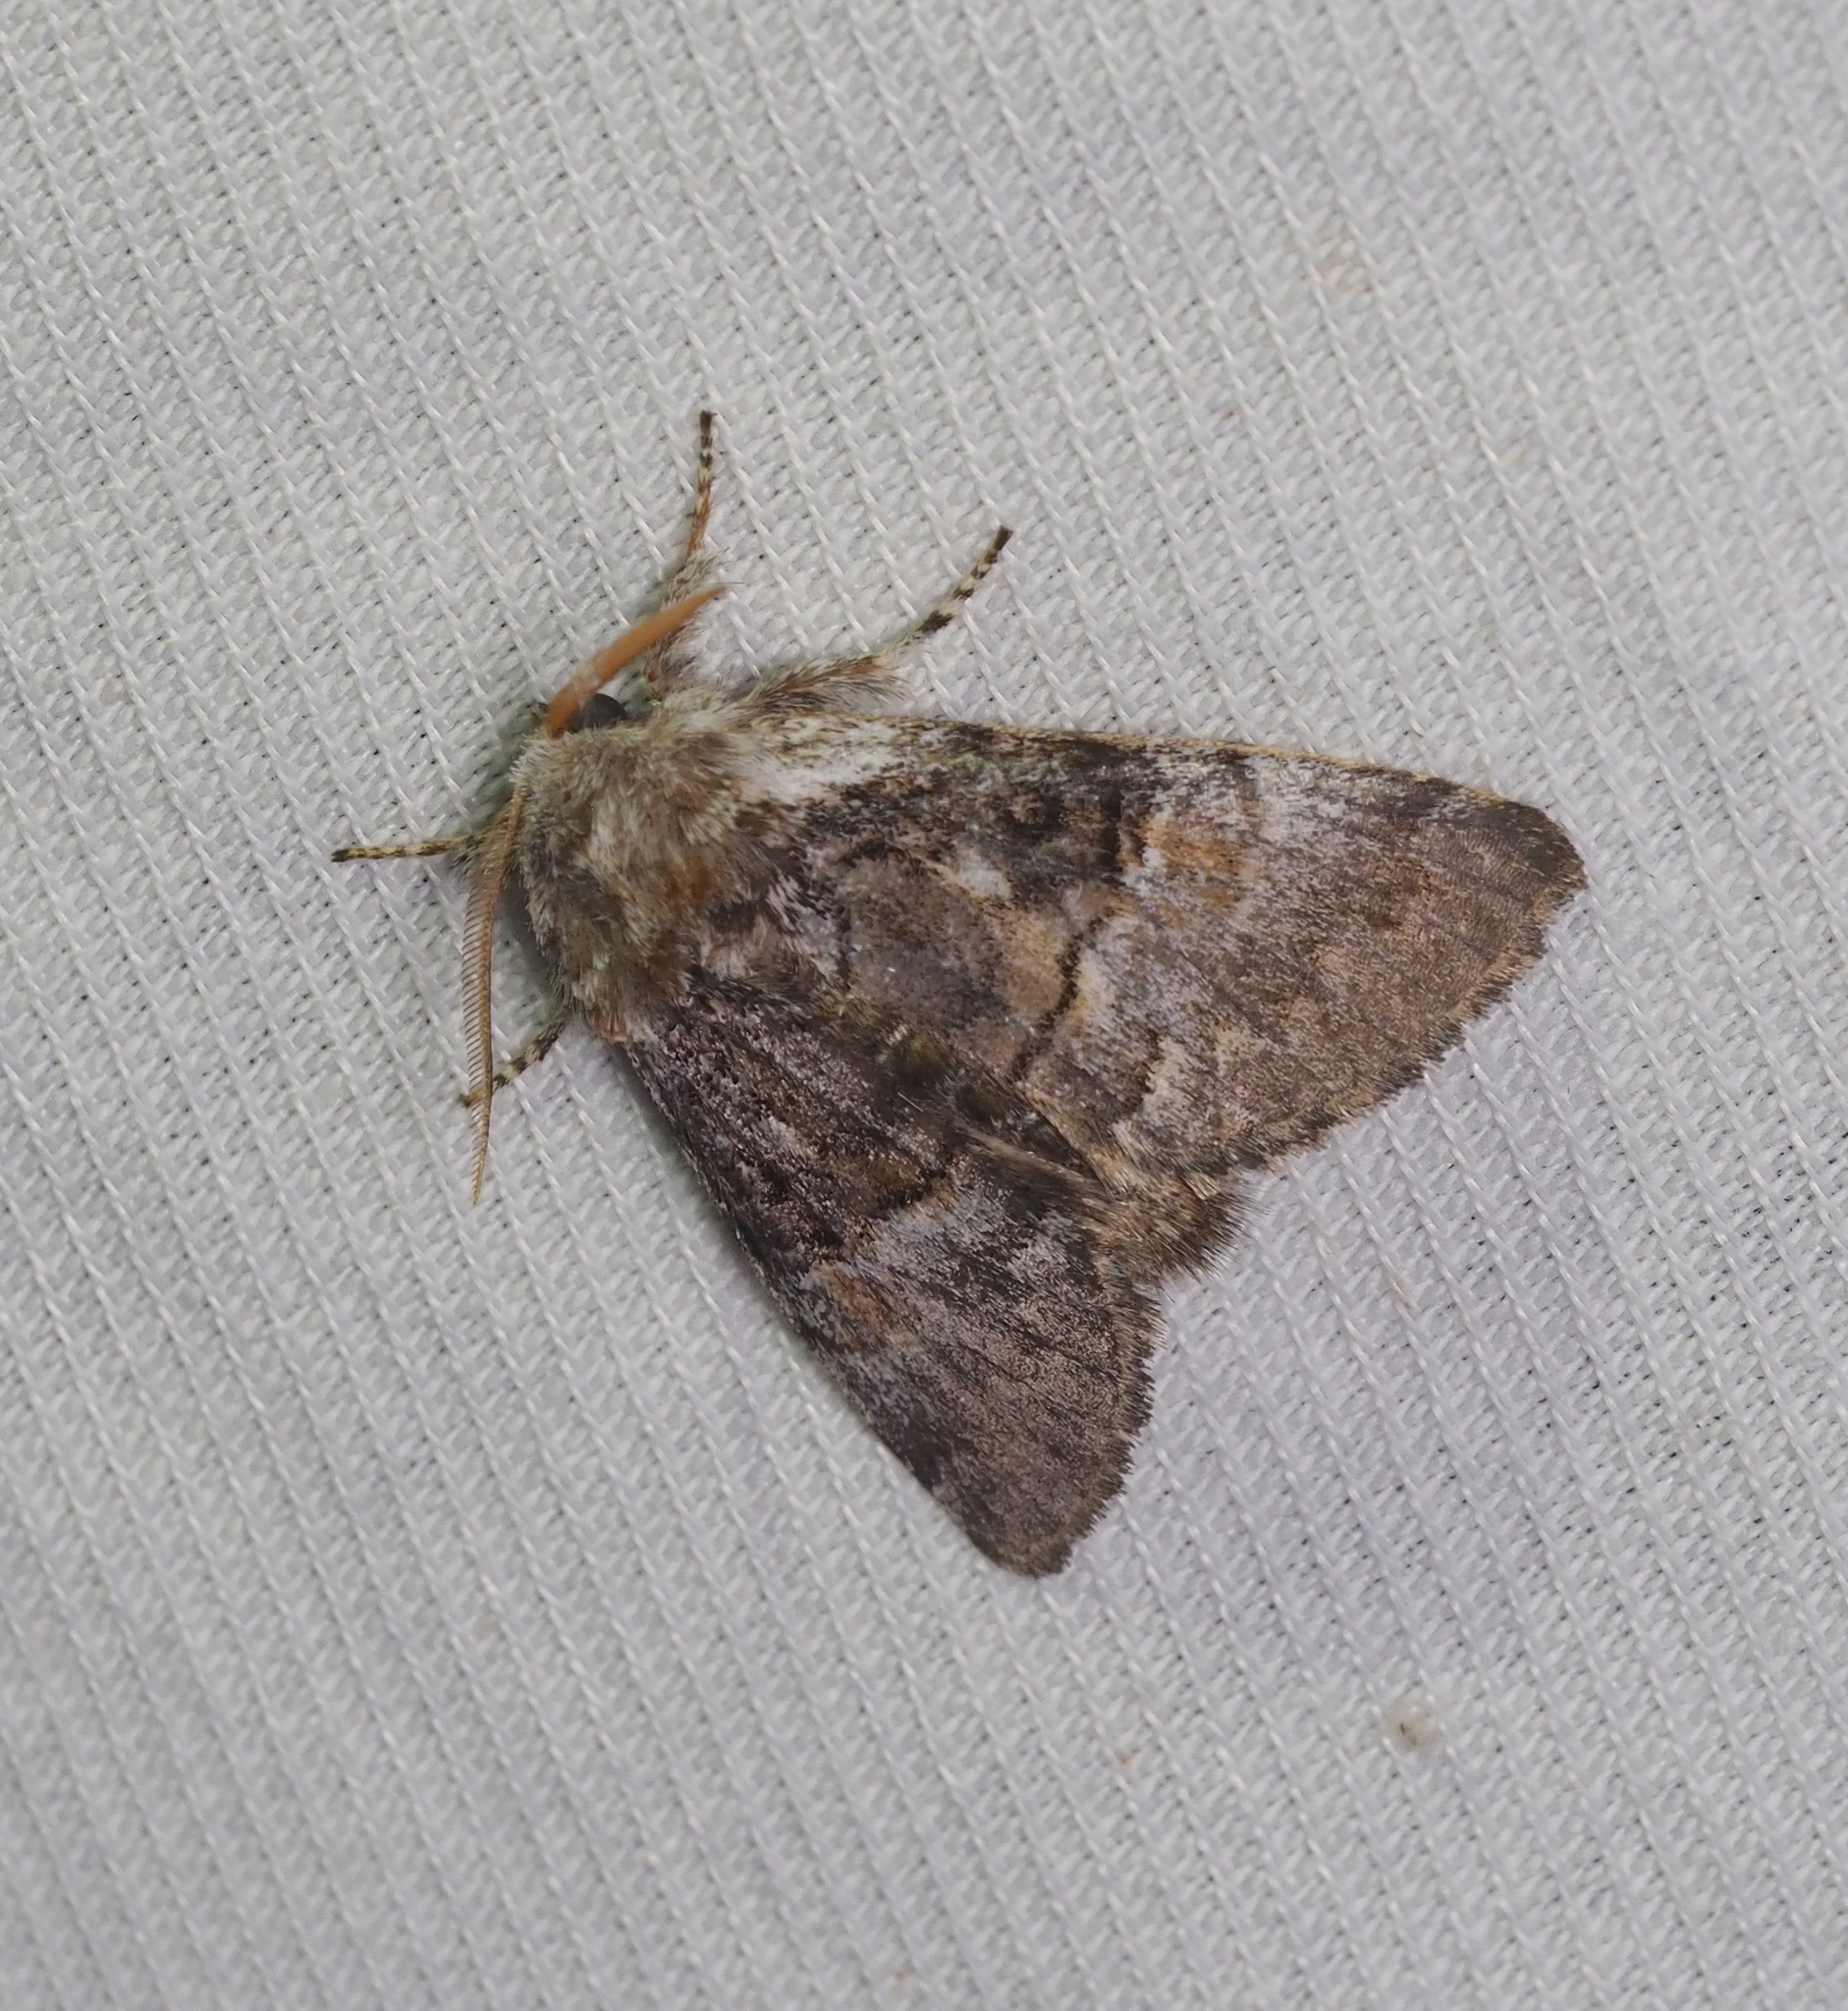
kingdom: Animalia
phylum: Arthropoda
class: Insecta
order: Lepidoptera
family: Noctuidae
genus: Colocasia
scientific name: Colocasia coryli
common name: Nut-tree tussock
